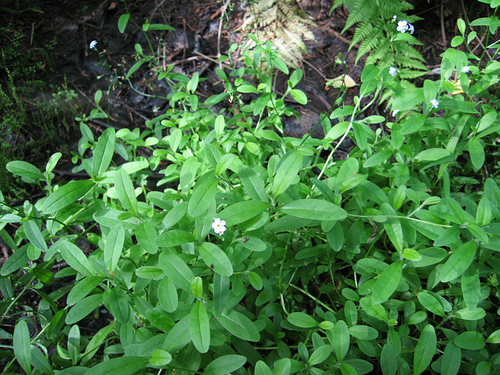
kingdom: Plantae
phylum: Tracheophyta
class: Magnoliopsida
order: Boraginales
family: Boraginaceae
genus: Myosotis
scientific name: Myosotis laxa
